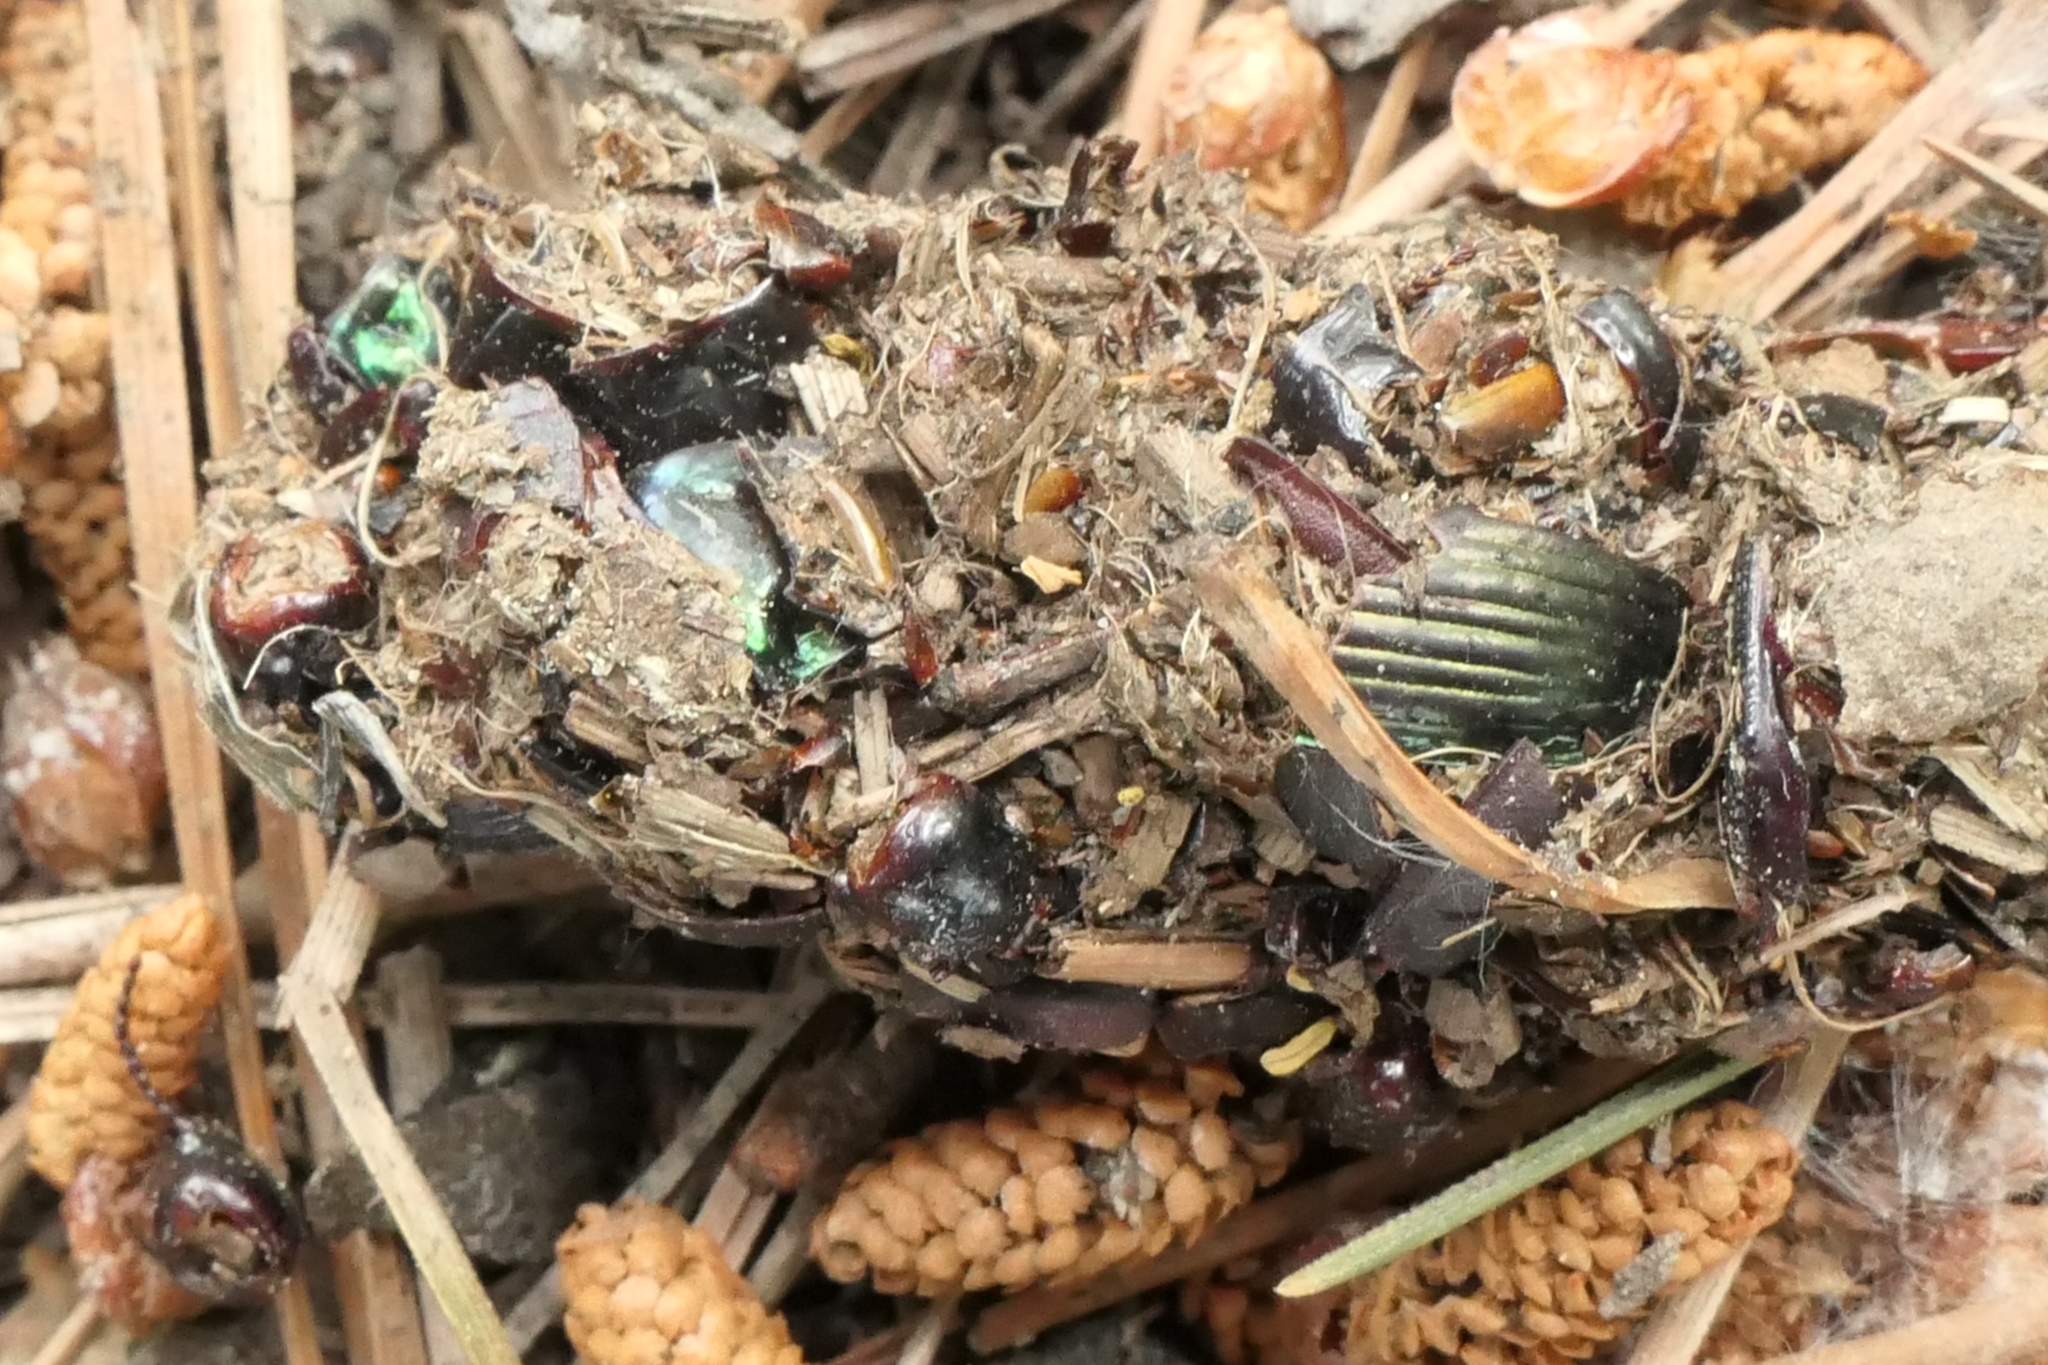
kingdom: Animalia
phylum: Arthropoda
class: Insecta
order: Coleoptera
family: Carabidae
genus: Megadromus
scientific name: Megadromus antarcticus
